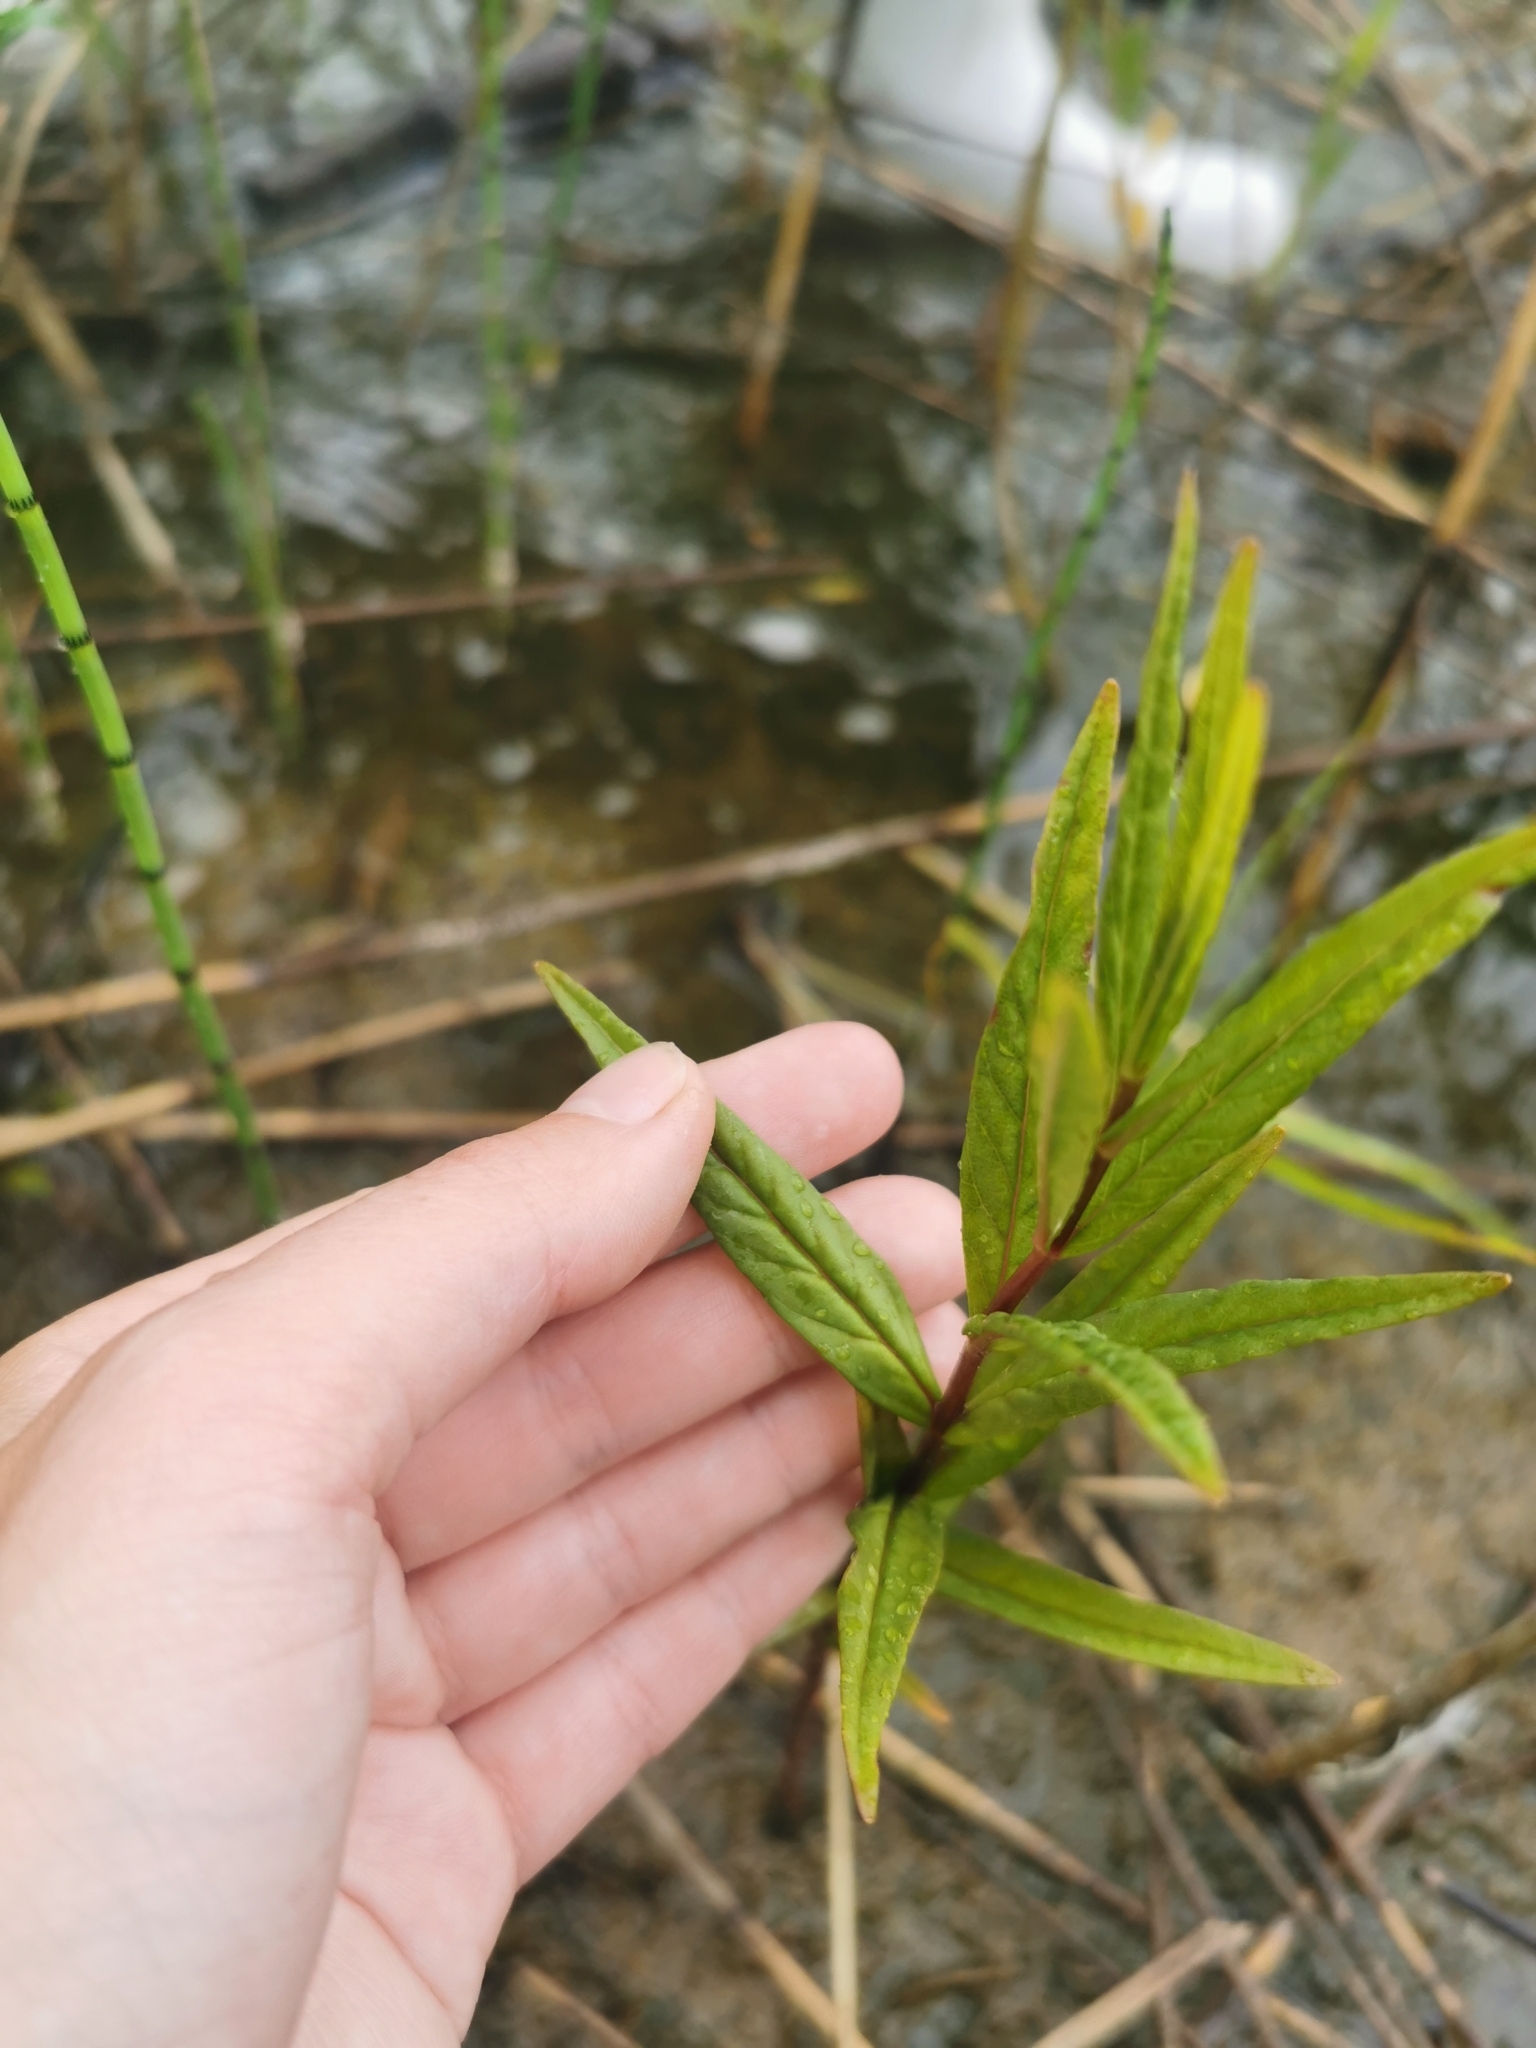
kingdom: Plantae
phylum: Tracheophyta
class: Magnoliopsida
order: Ericales
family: Primulaceae
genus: Lysimachia
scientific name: Lysimachia thyrsiflora
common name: Tufted loosestrife
